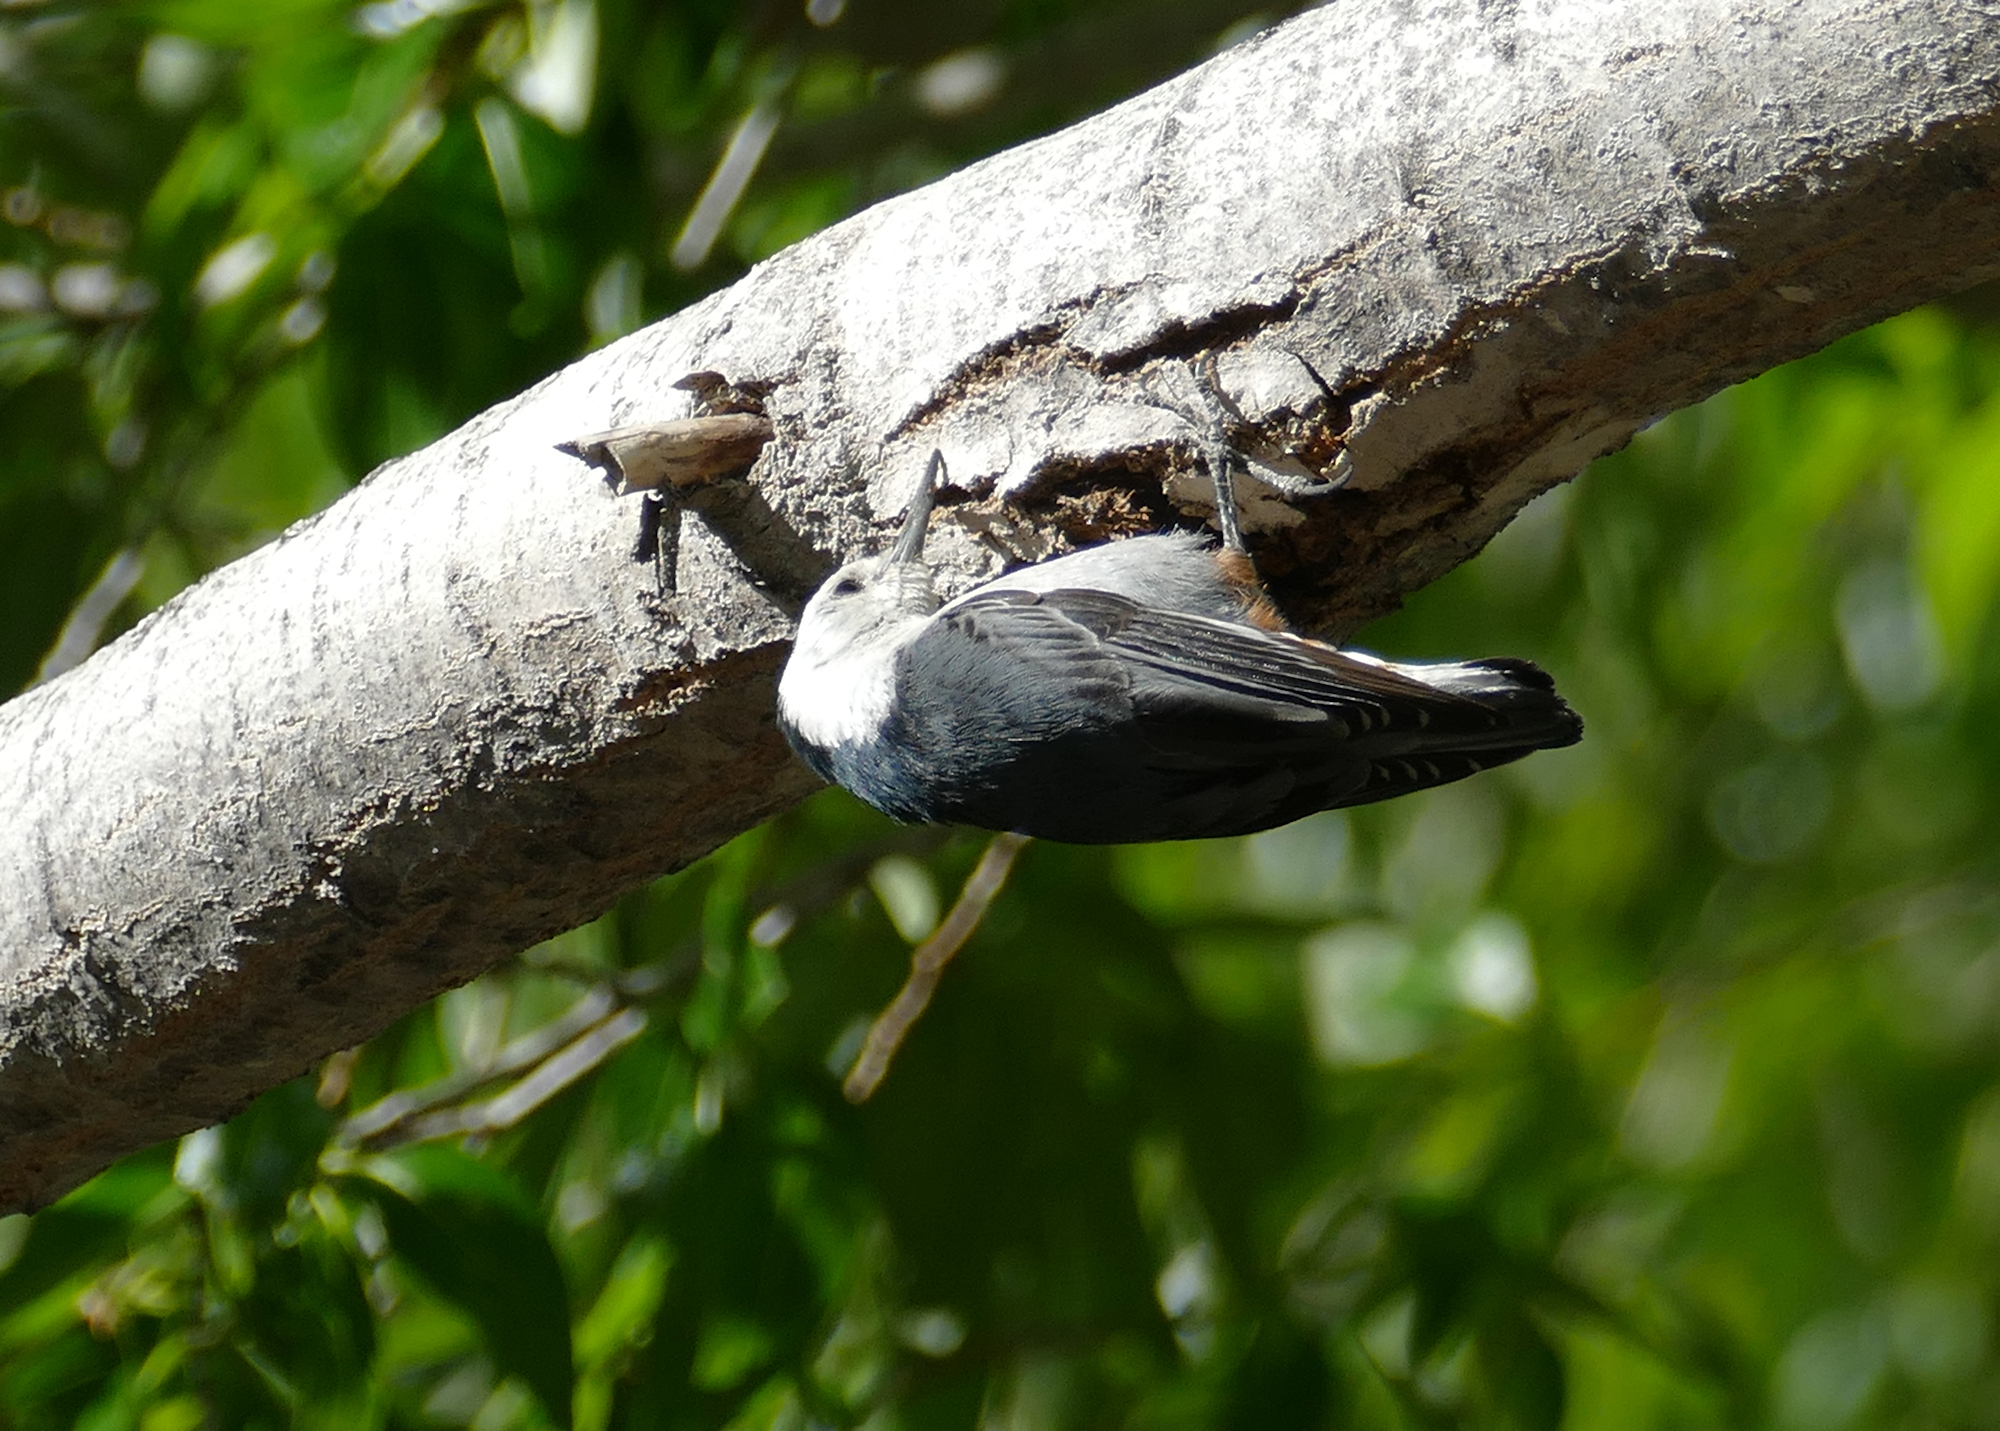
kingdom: Animalia
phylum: Chordata
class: Aves
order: Passeriformes
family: Sittidae
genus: Sitta
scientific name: Sitta carolinensis
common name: White-breasted nuthatch
